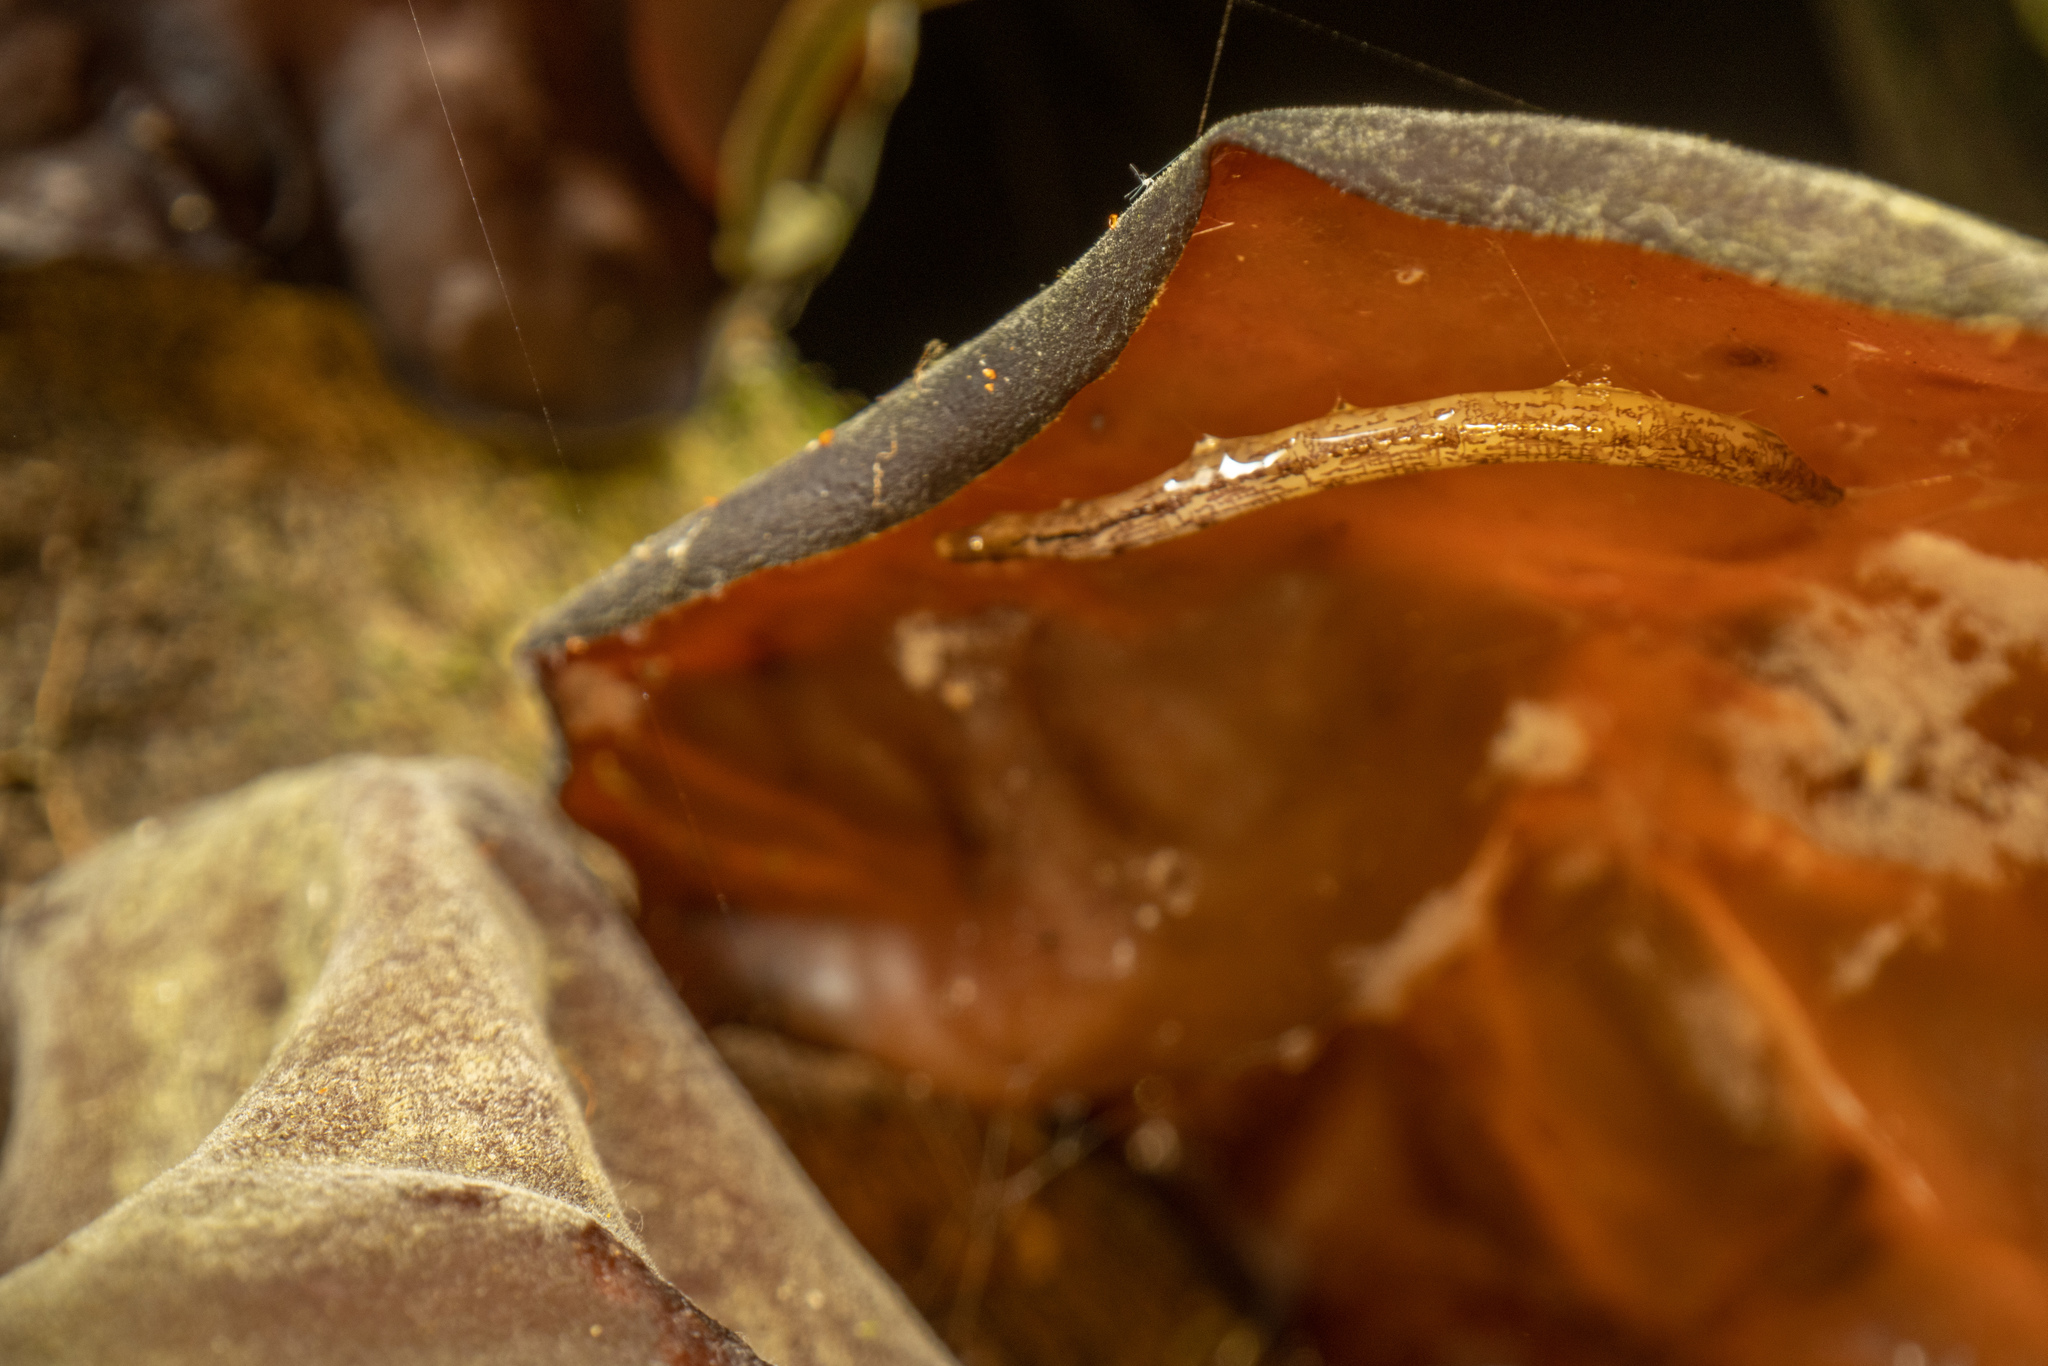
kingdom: Animalia
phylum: Arthropoda
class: Insecta
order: Diptera
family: Keroplatidae
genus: Arachnocampa
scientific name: Arachnocampa luminosa
